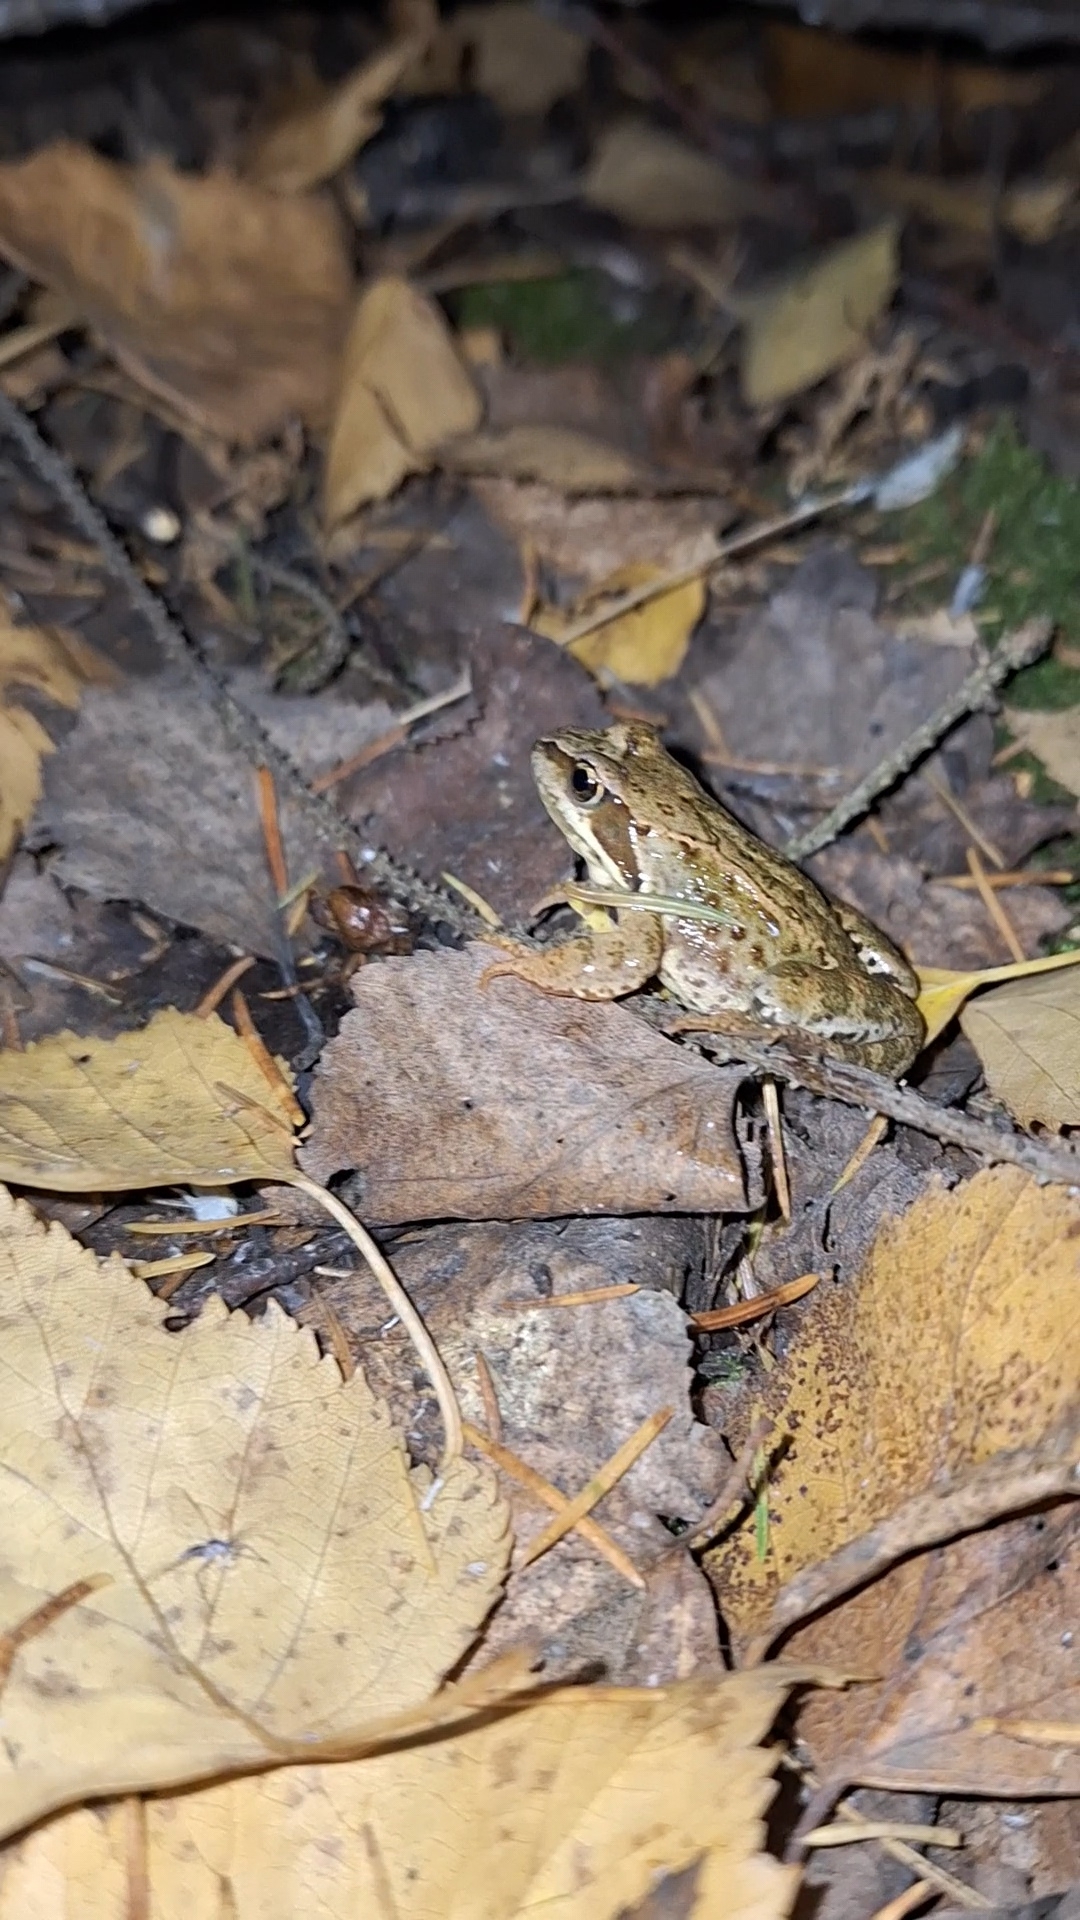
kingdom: Animalia
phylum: Chordata
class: Amphibia
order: Anura
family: Ranidae
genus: Rana
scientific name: Rana temporaria
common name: Common frog
